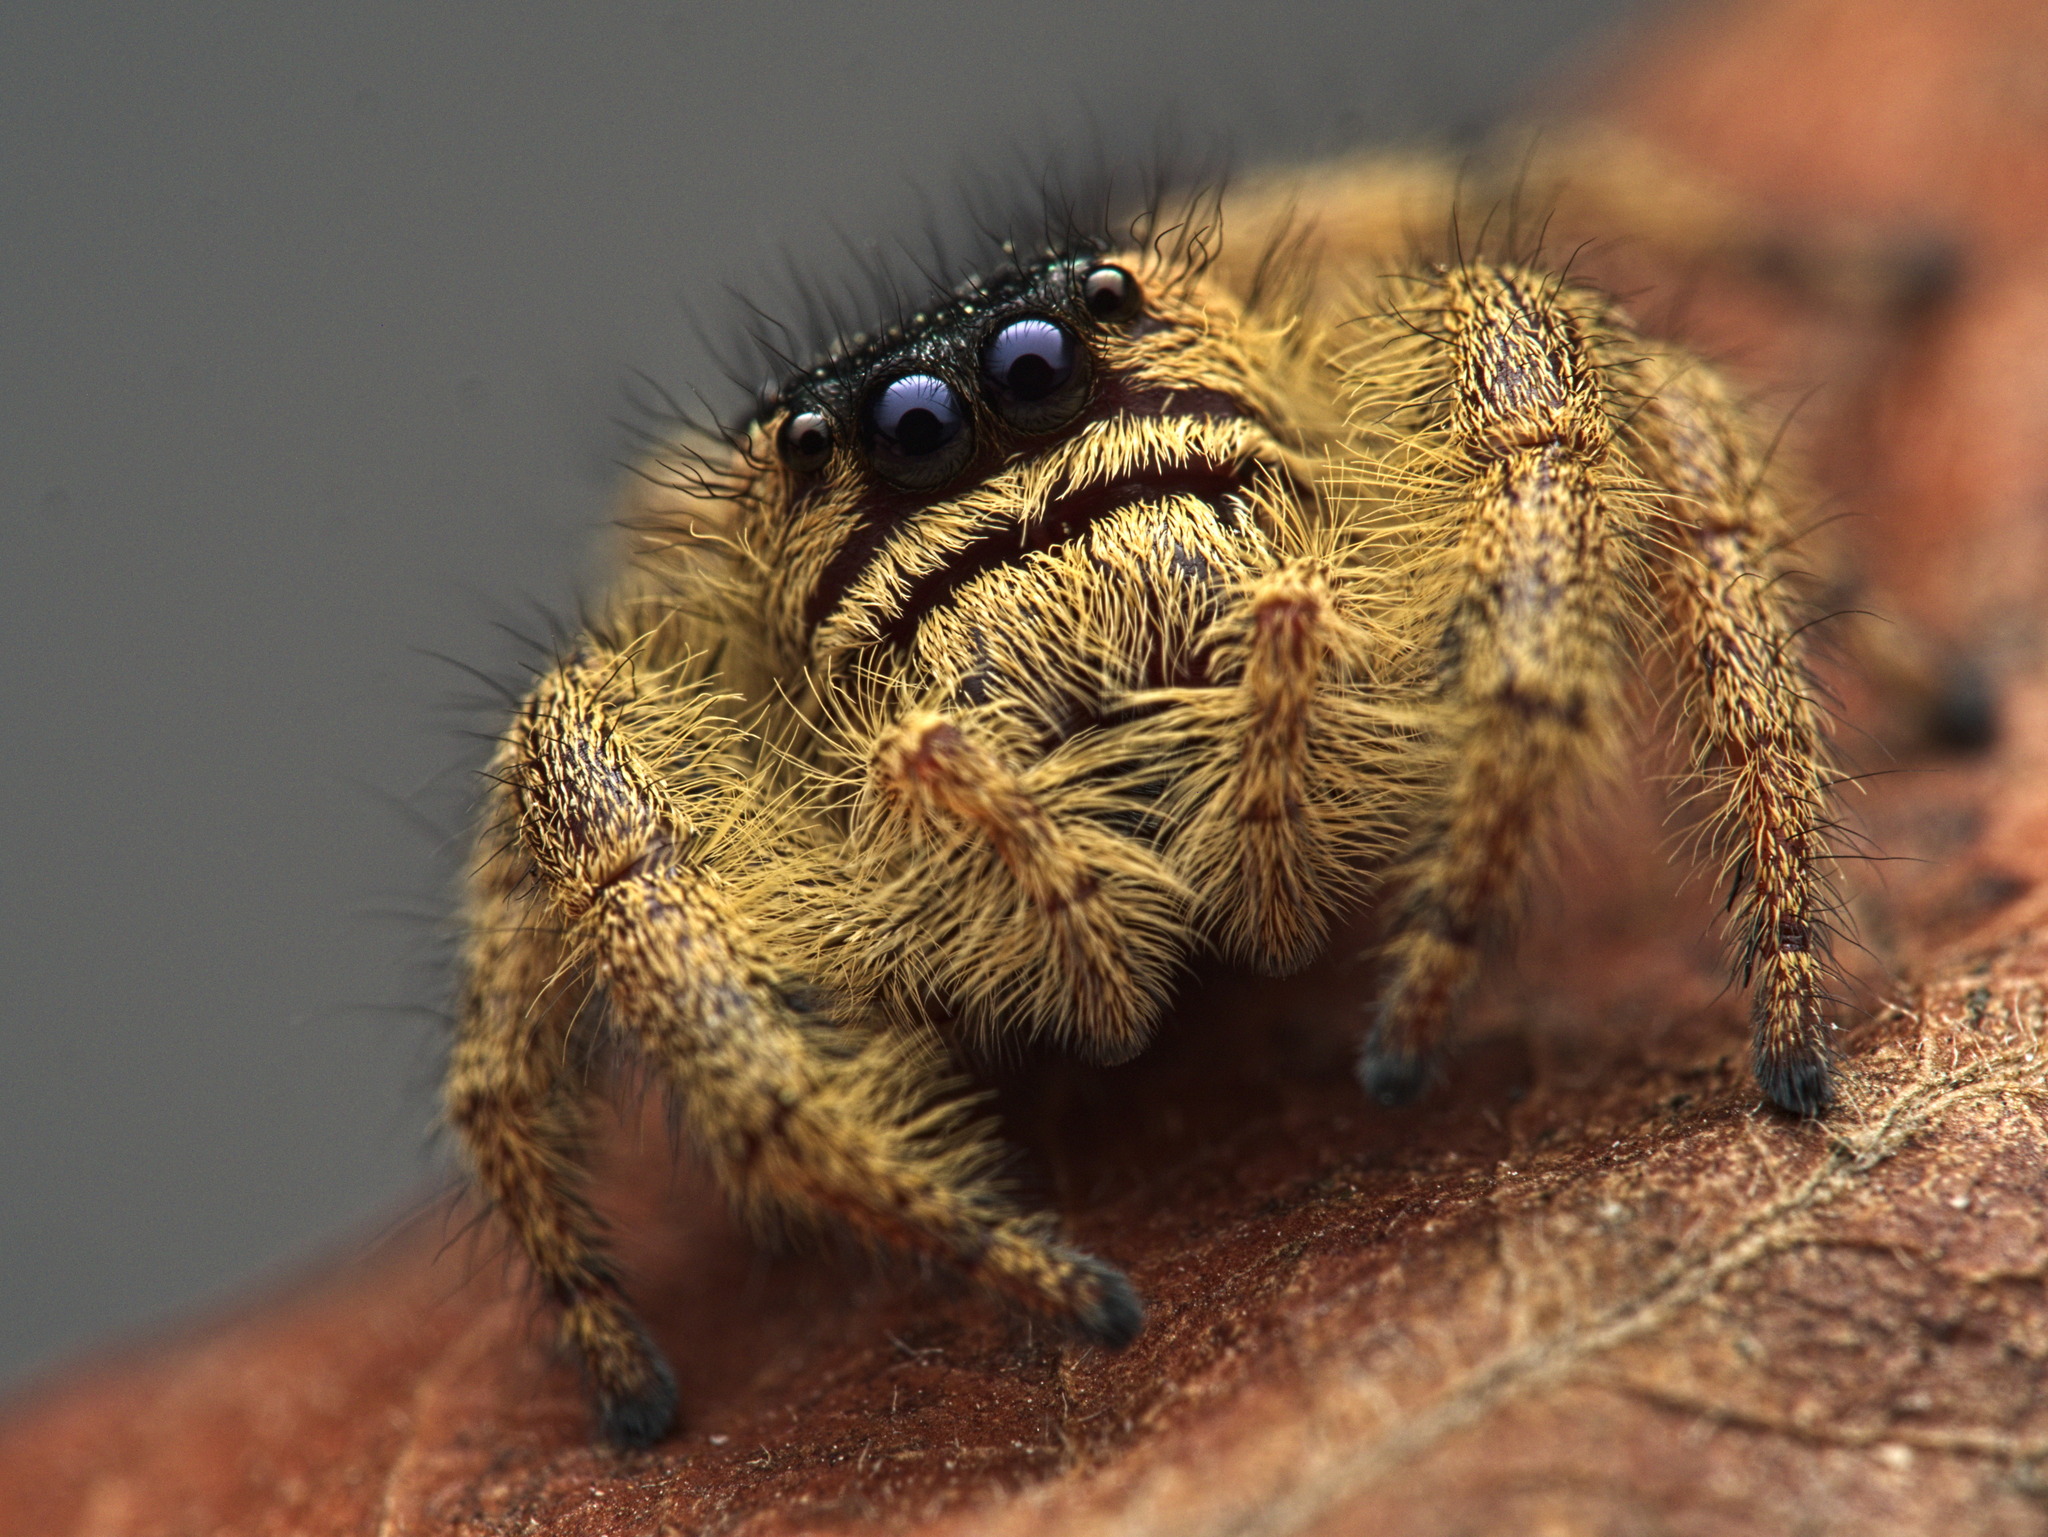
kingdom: Animalia
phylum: Arthropoda
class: Arachnida
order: Araneae
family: Salticidae
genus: Paraphidippus
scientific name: Paraphidippus
